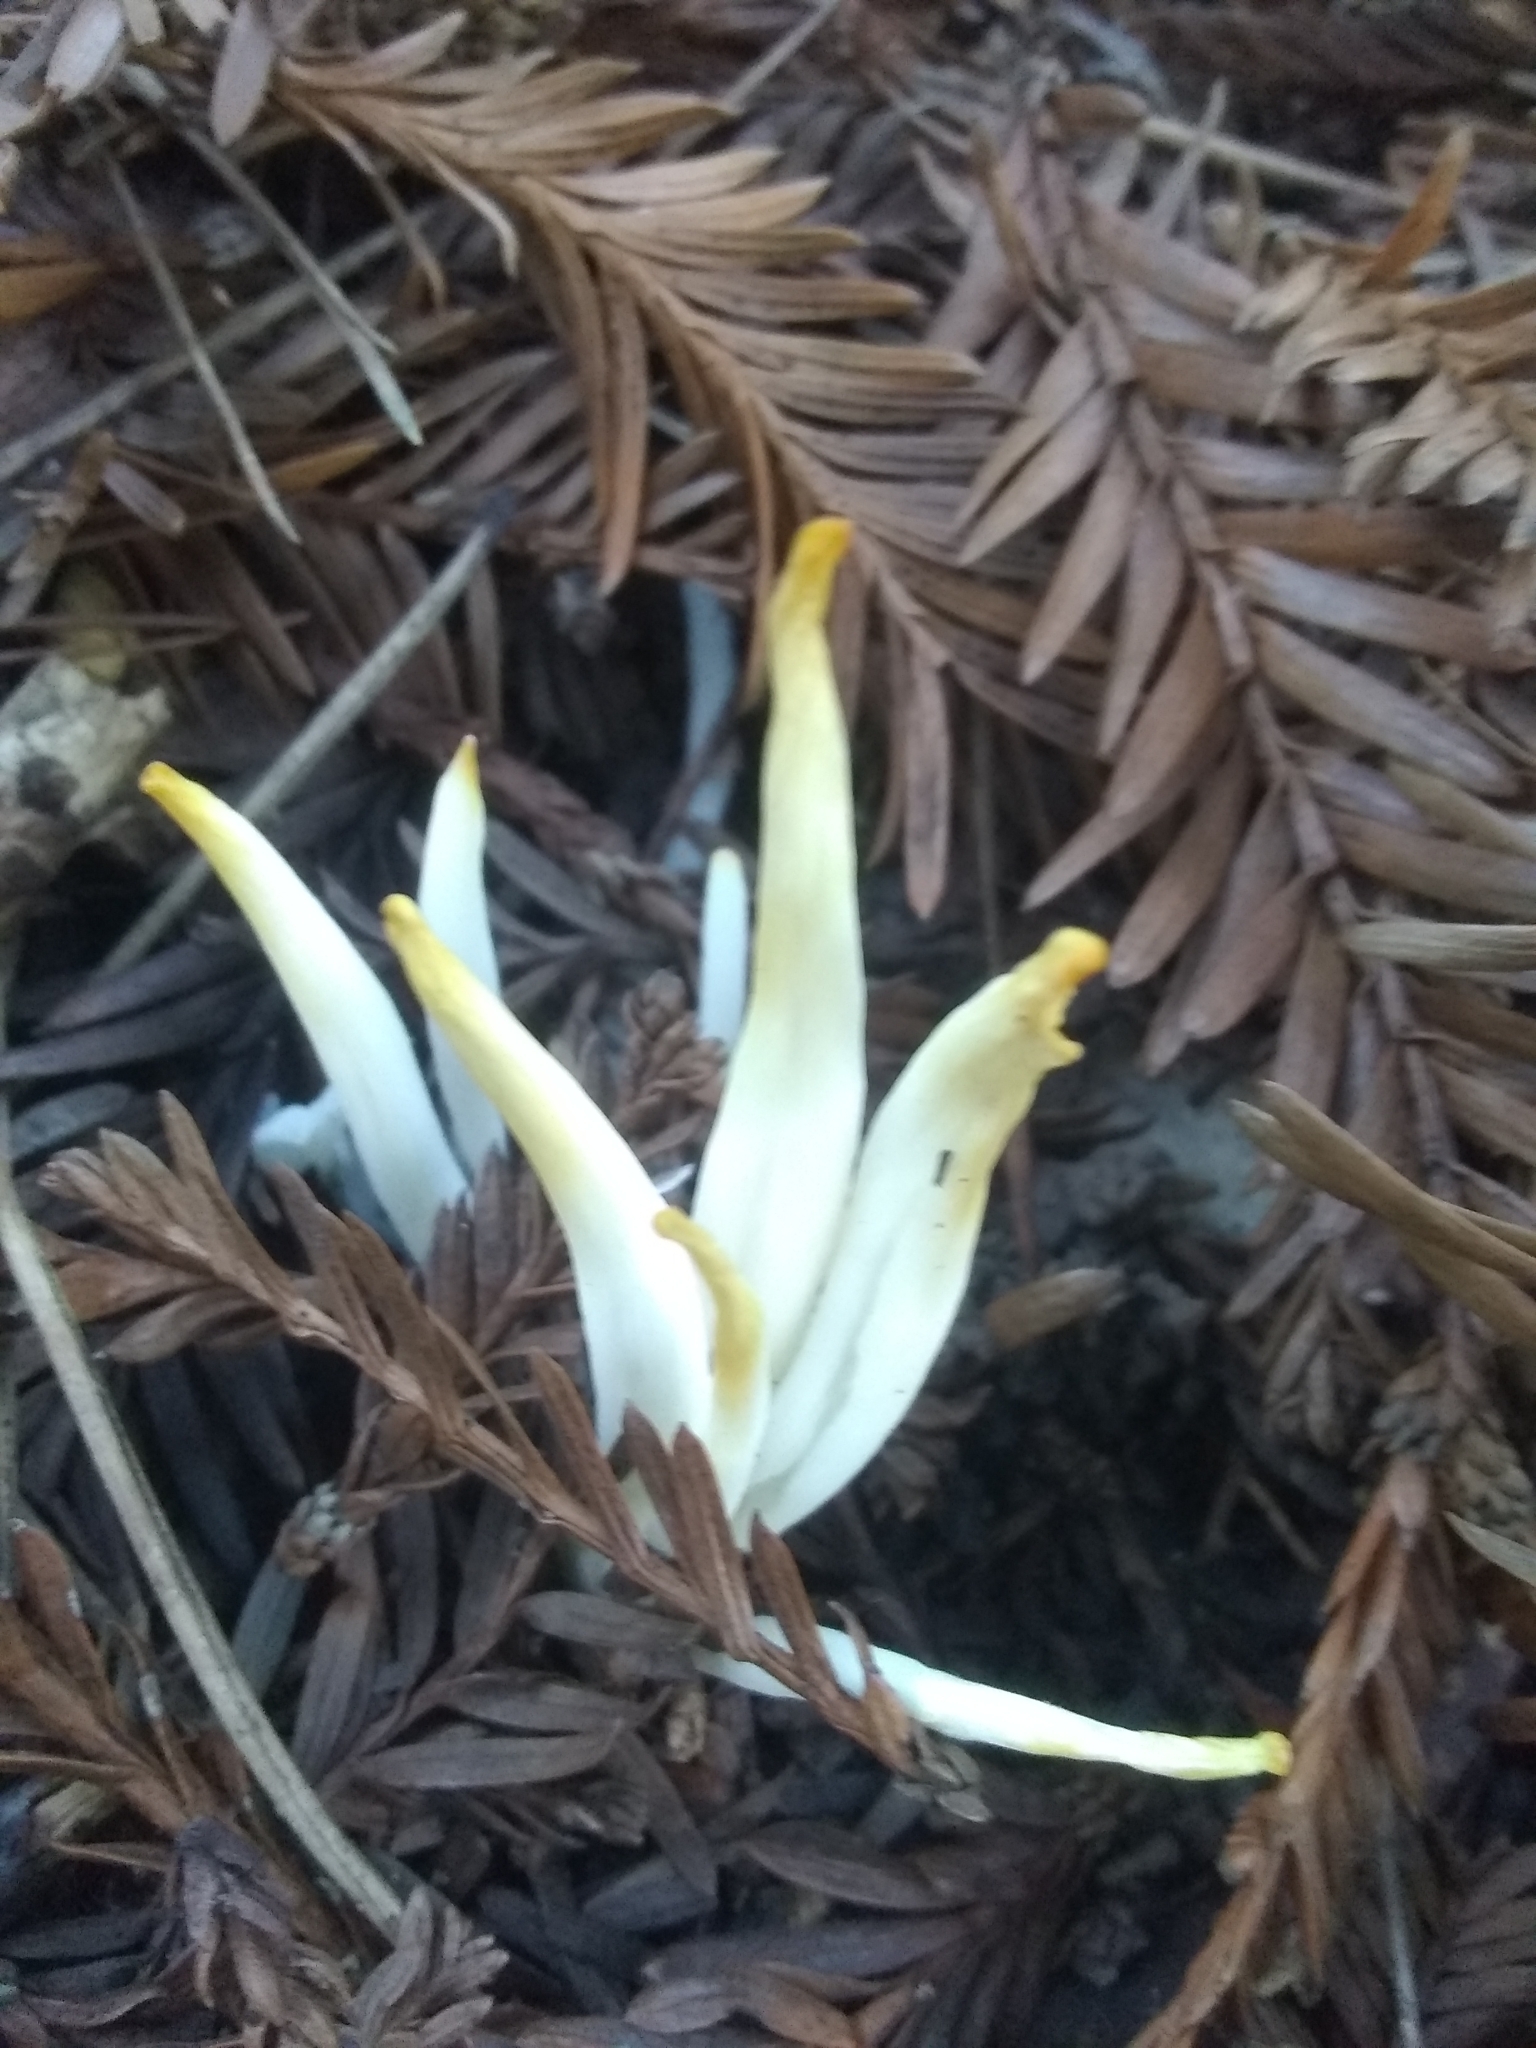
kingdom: Fungi
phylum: Basidiomycota
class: Agaricomycetes
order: Agaricales
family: Clavariaceae
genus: Clavaria
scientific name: Clavaria fragilis
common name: White spindles
